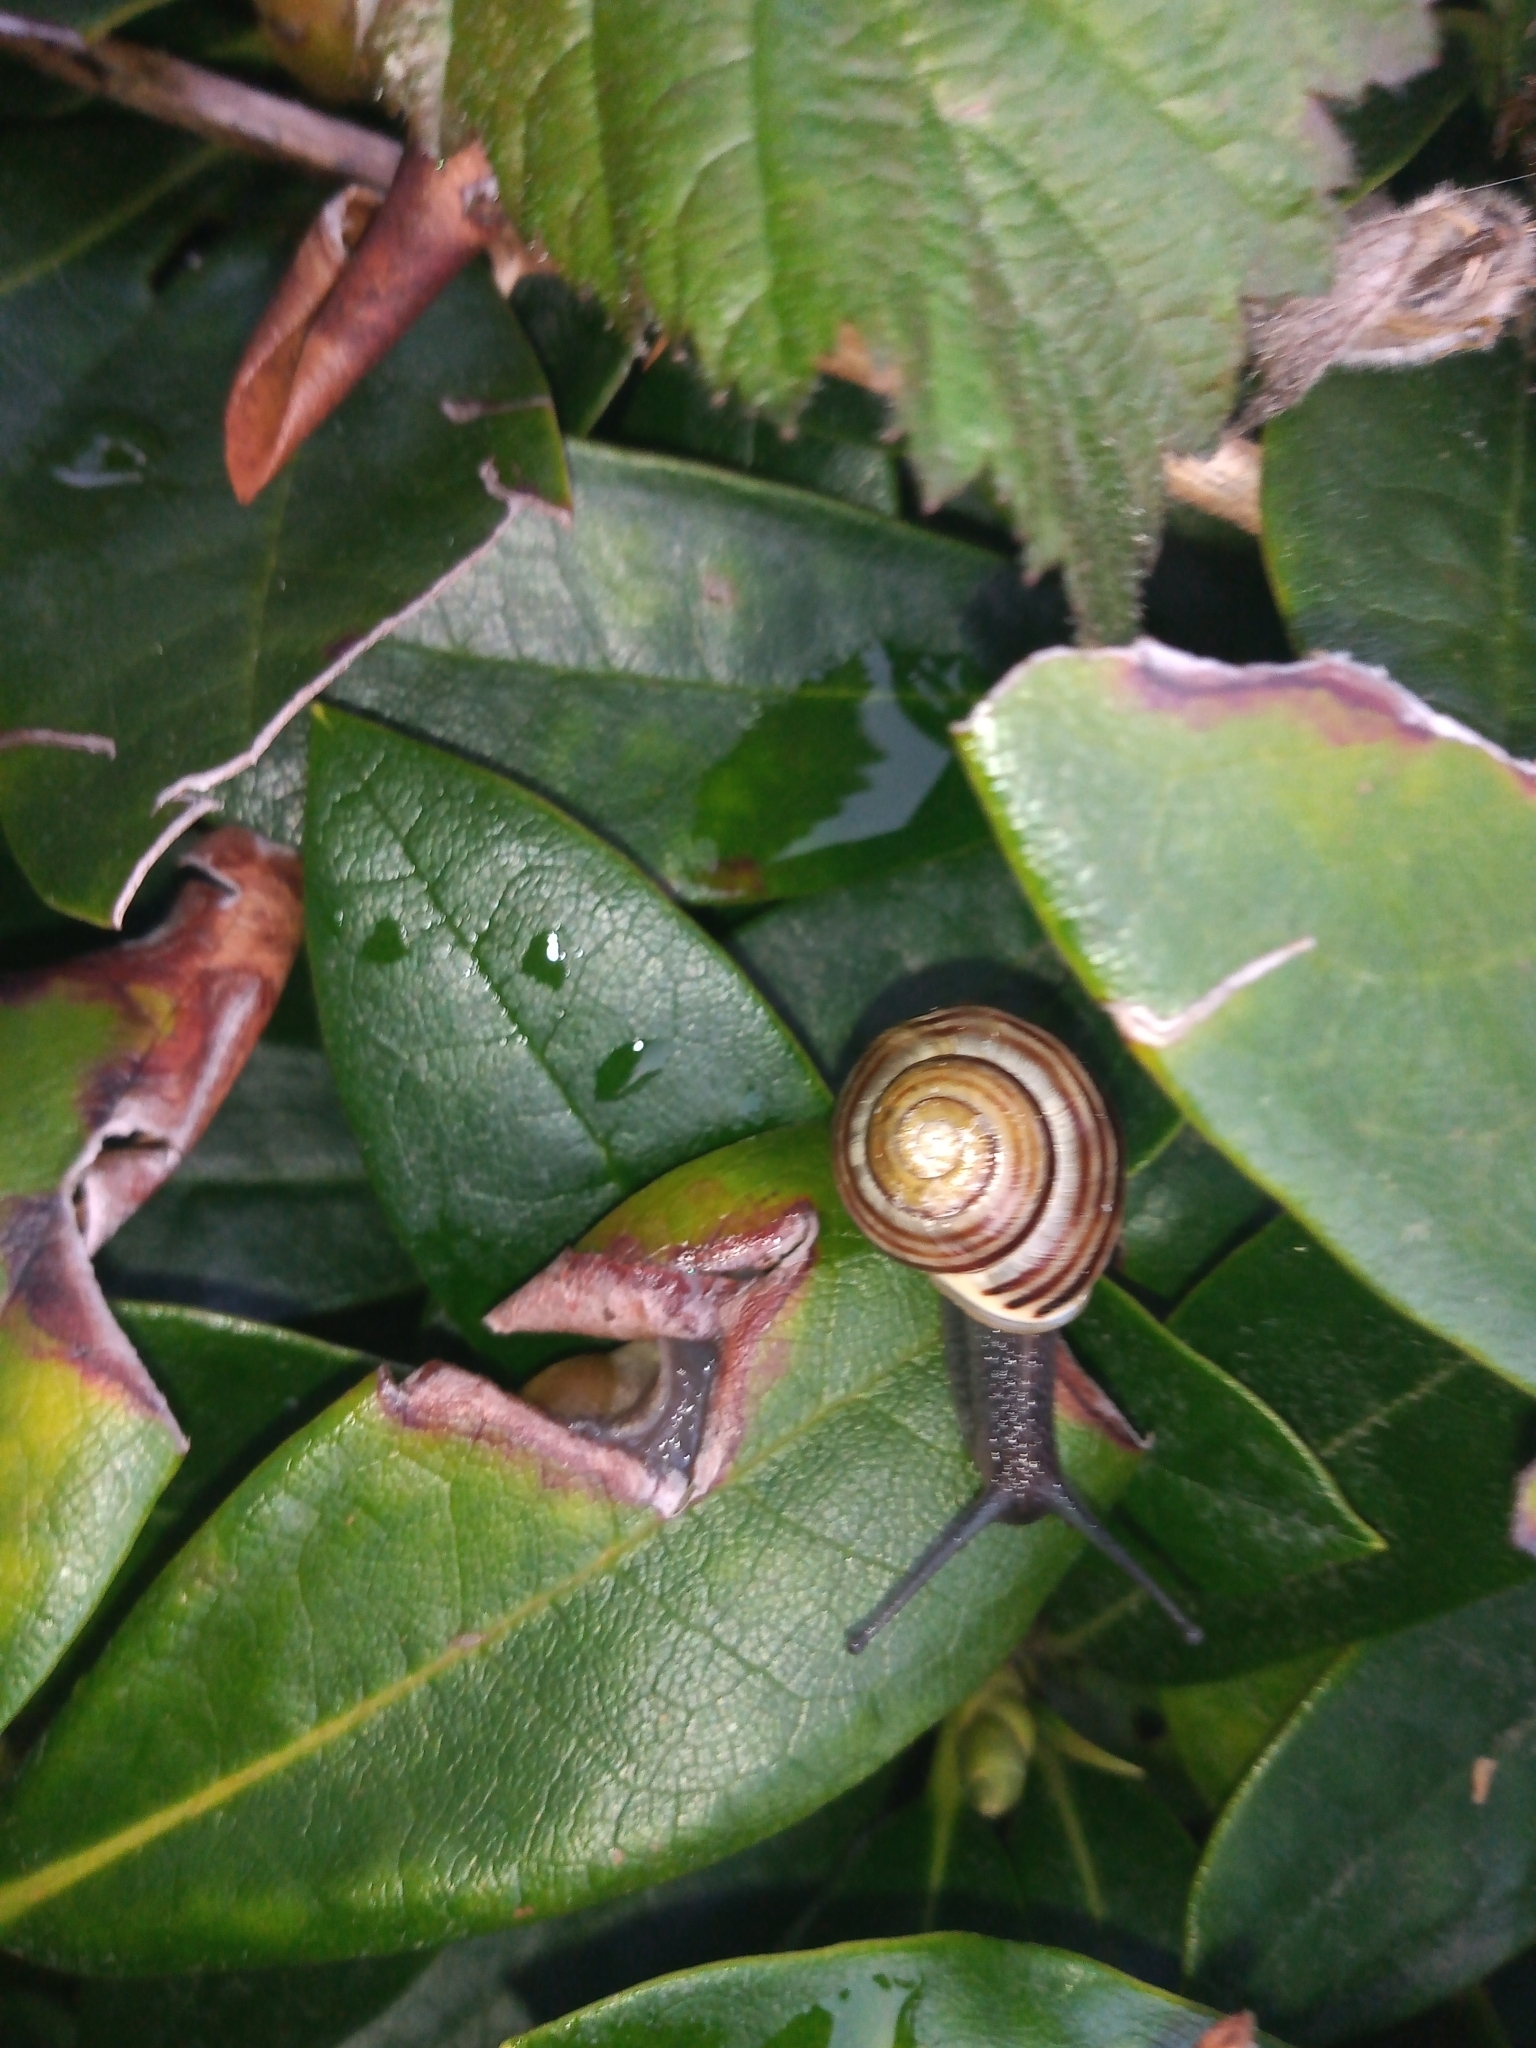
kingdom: Animalia
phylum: Mollusca
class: Gastropoda
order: Stylommatophora
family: Helicidae
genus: Cepaea
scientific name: Cepaea hortensis
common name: White-lip gardensnail
